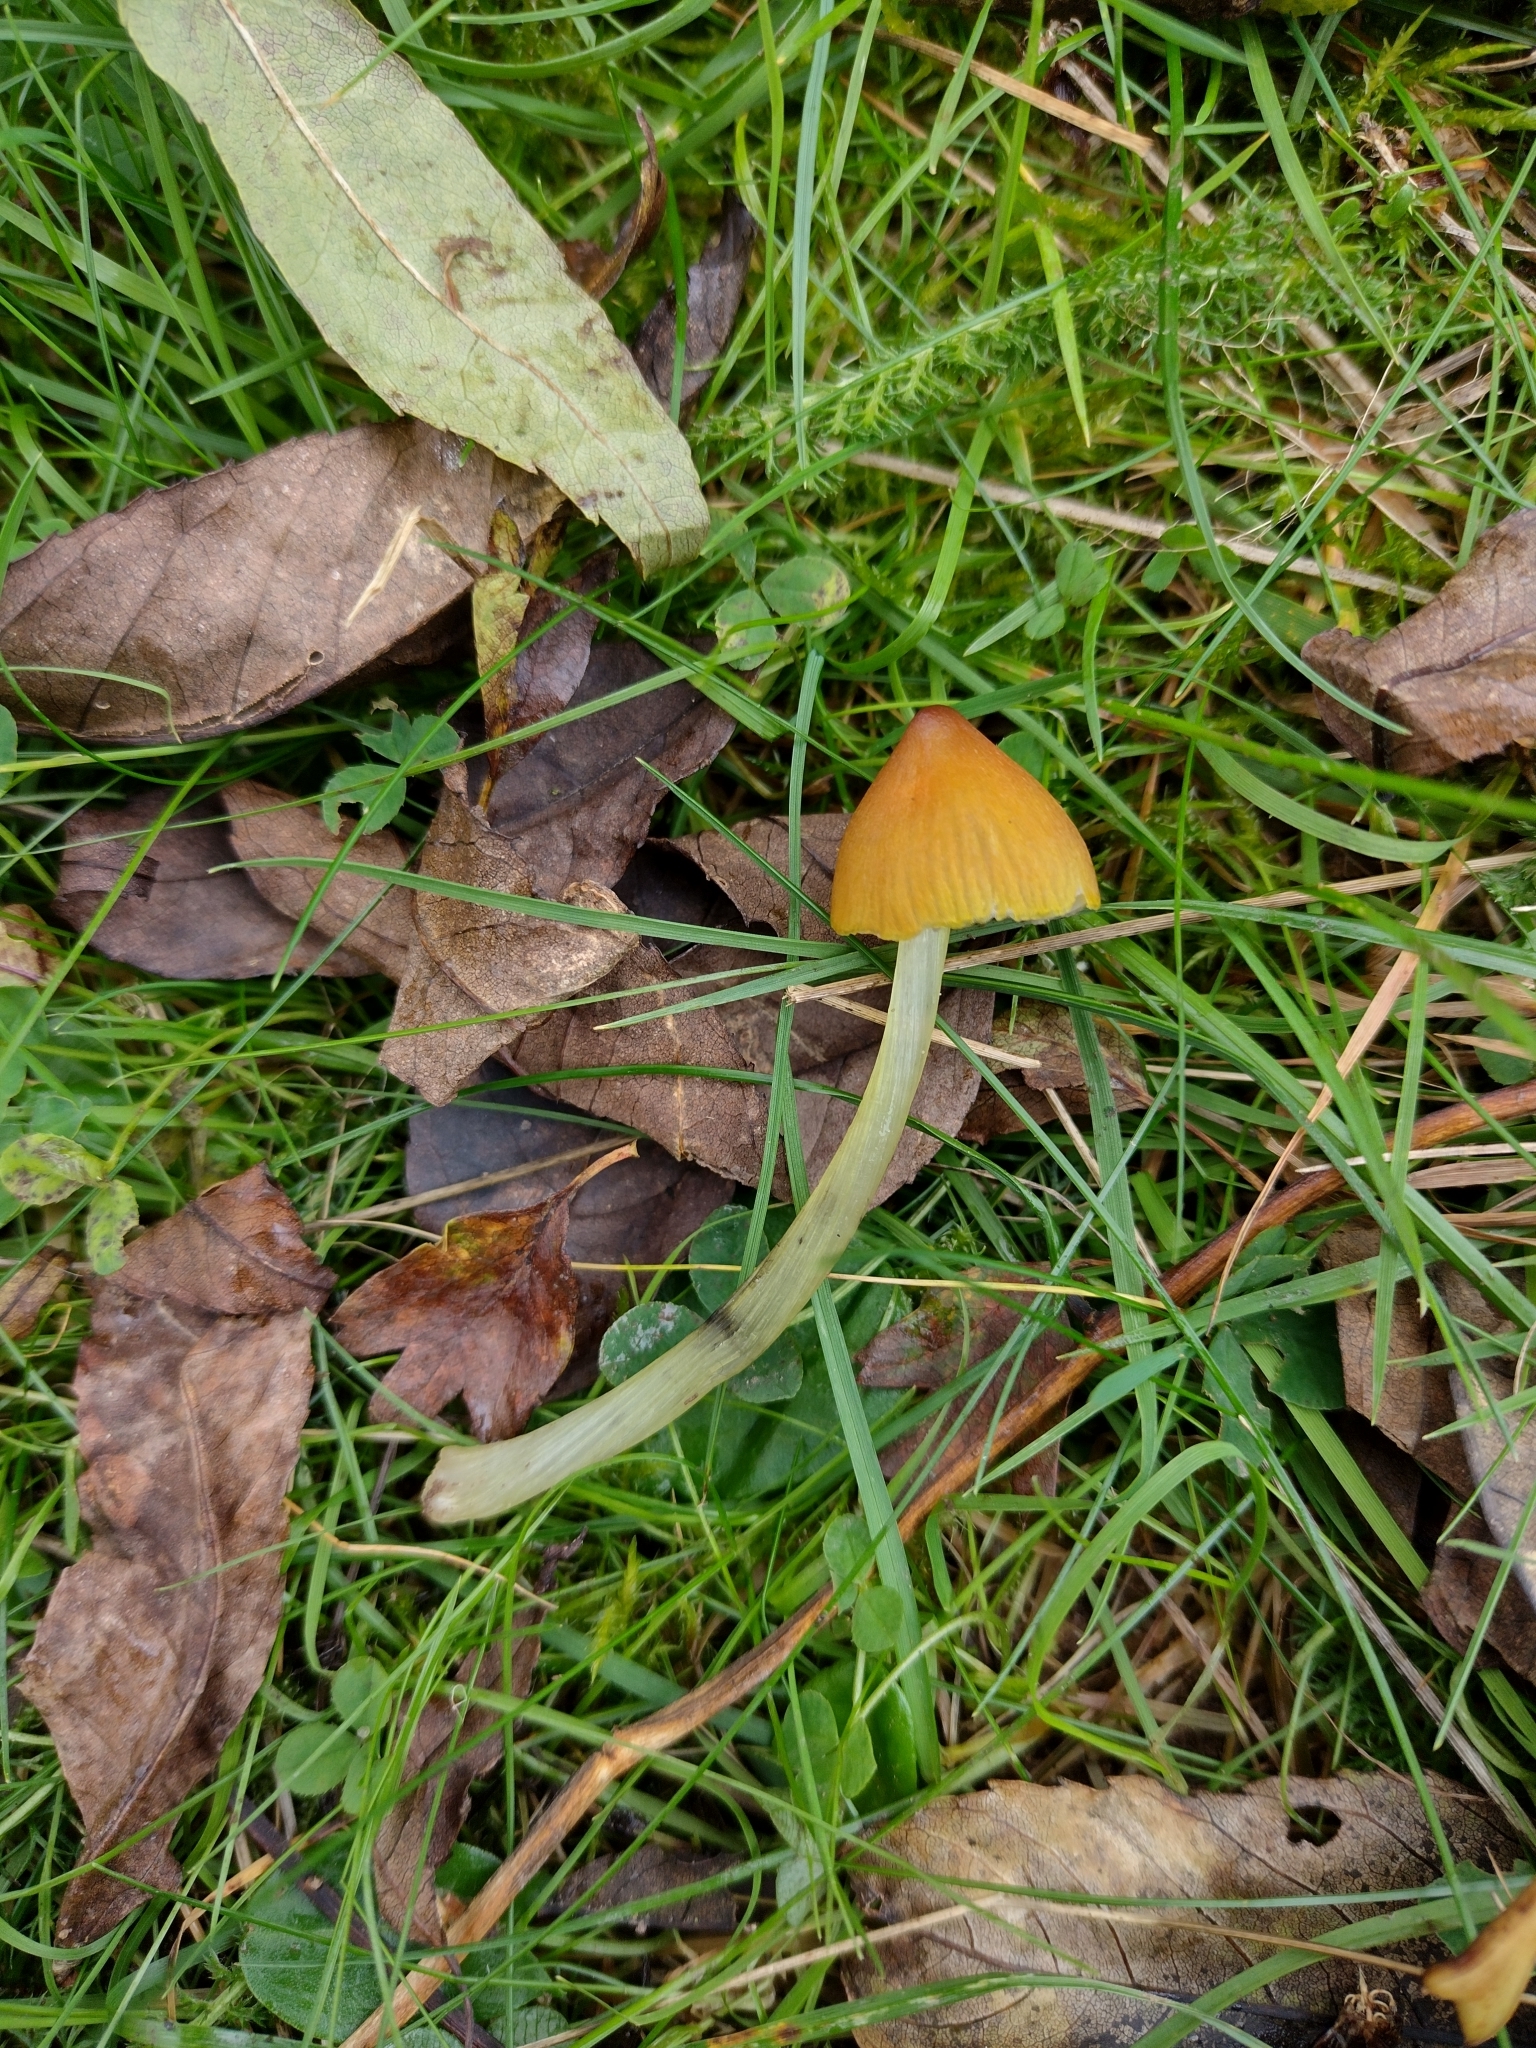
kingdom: Fungi
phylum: Basidiomycota
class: Agaricomycetes
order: Agaricales
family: Hygrophoraceae
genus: Hygrocybe
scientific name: Hygrocybe conica
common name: Blackening wax-cap
